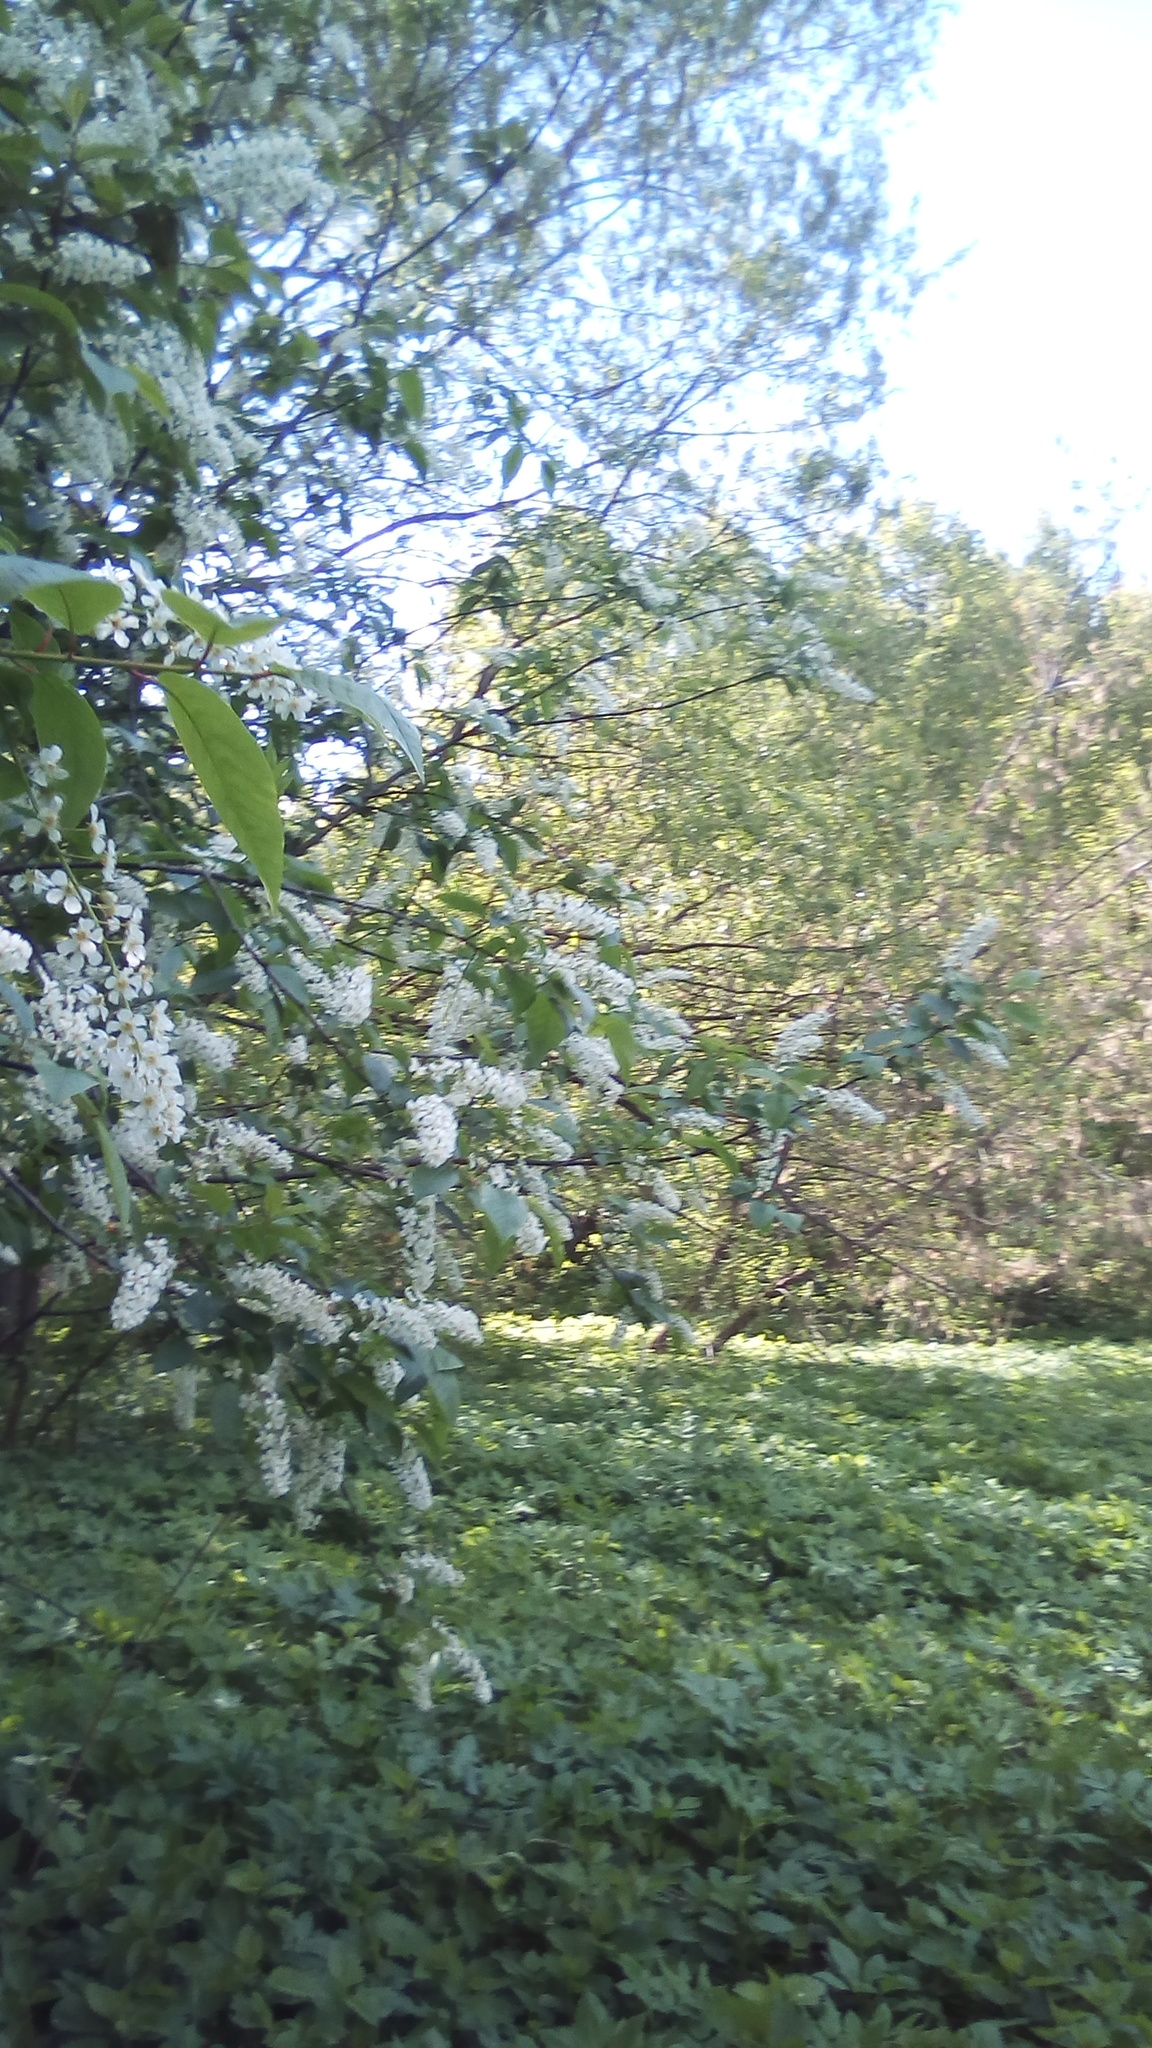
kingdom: Plantae
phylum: Tracheophyta
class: Magnoliopsida
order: Rosales
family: Rosaceae
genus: Prunus
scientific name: Prunus padus
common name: Bird cherry
